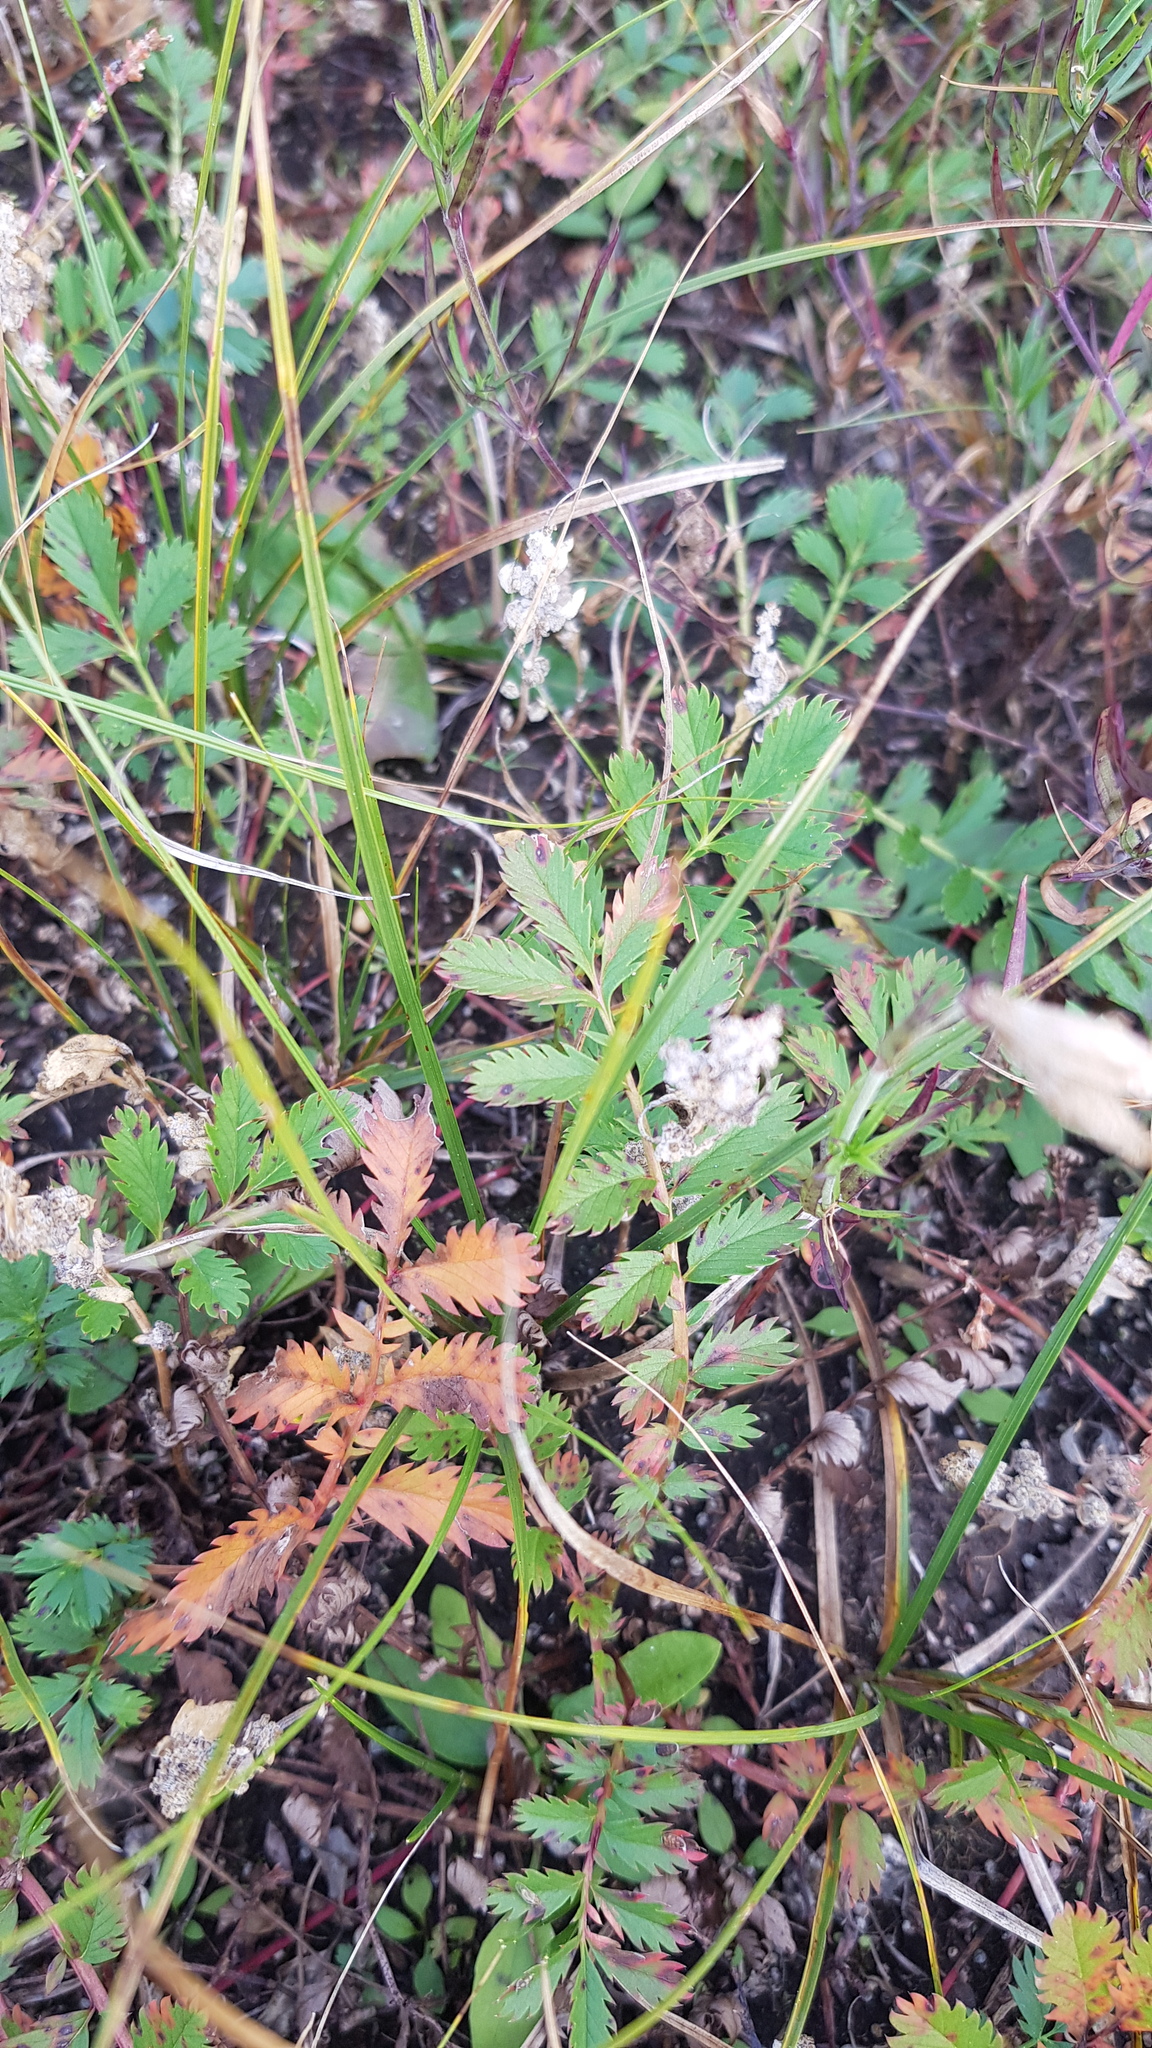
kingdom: Plantae
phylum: Tracheophyta
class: Magnoliopsida
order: Rosales
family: Rosaceae
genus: Potentilla
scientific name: Potentilla tanacetifolia
